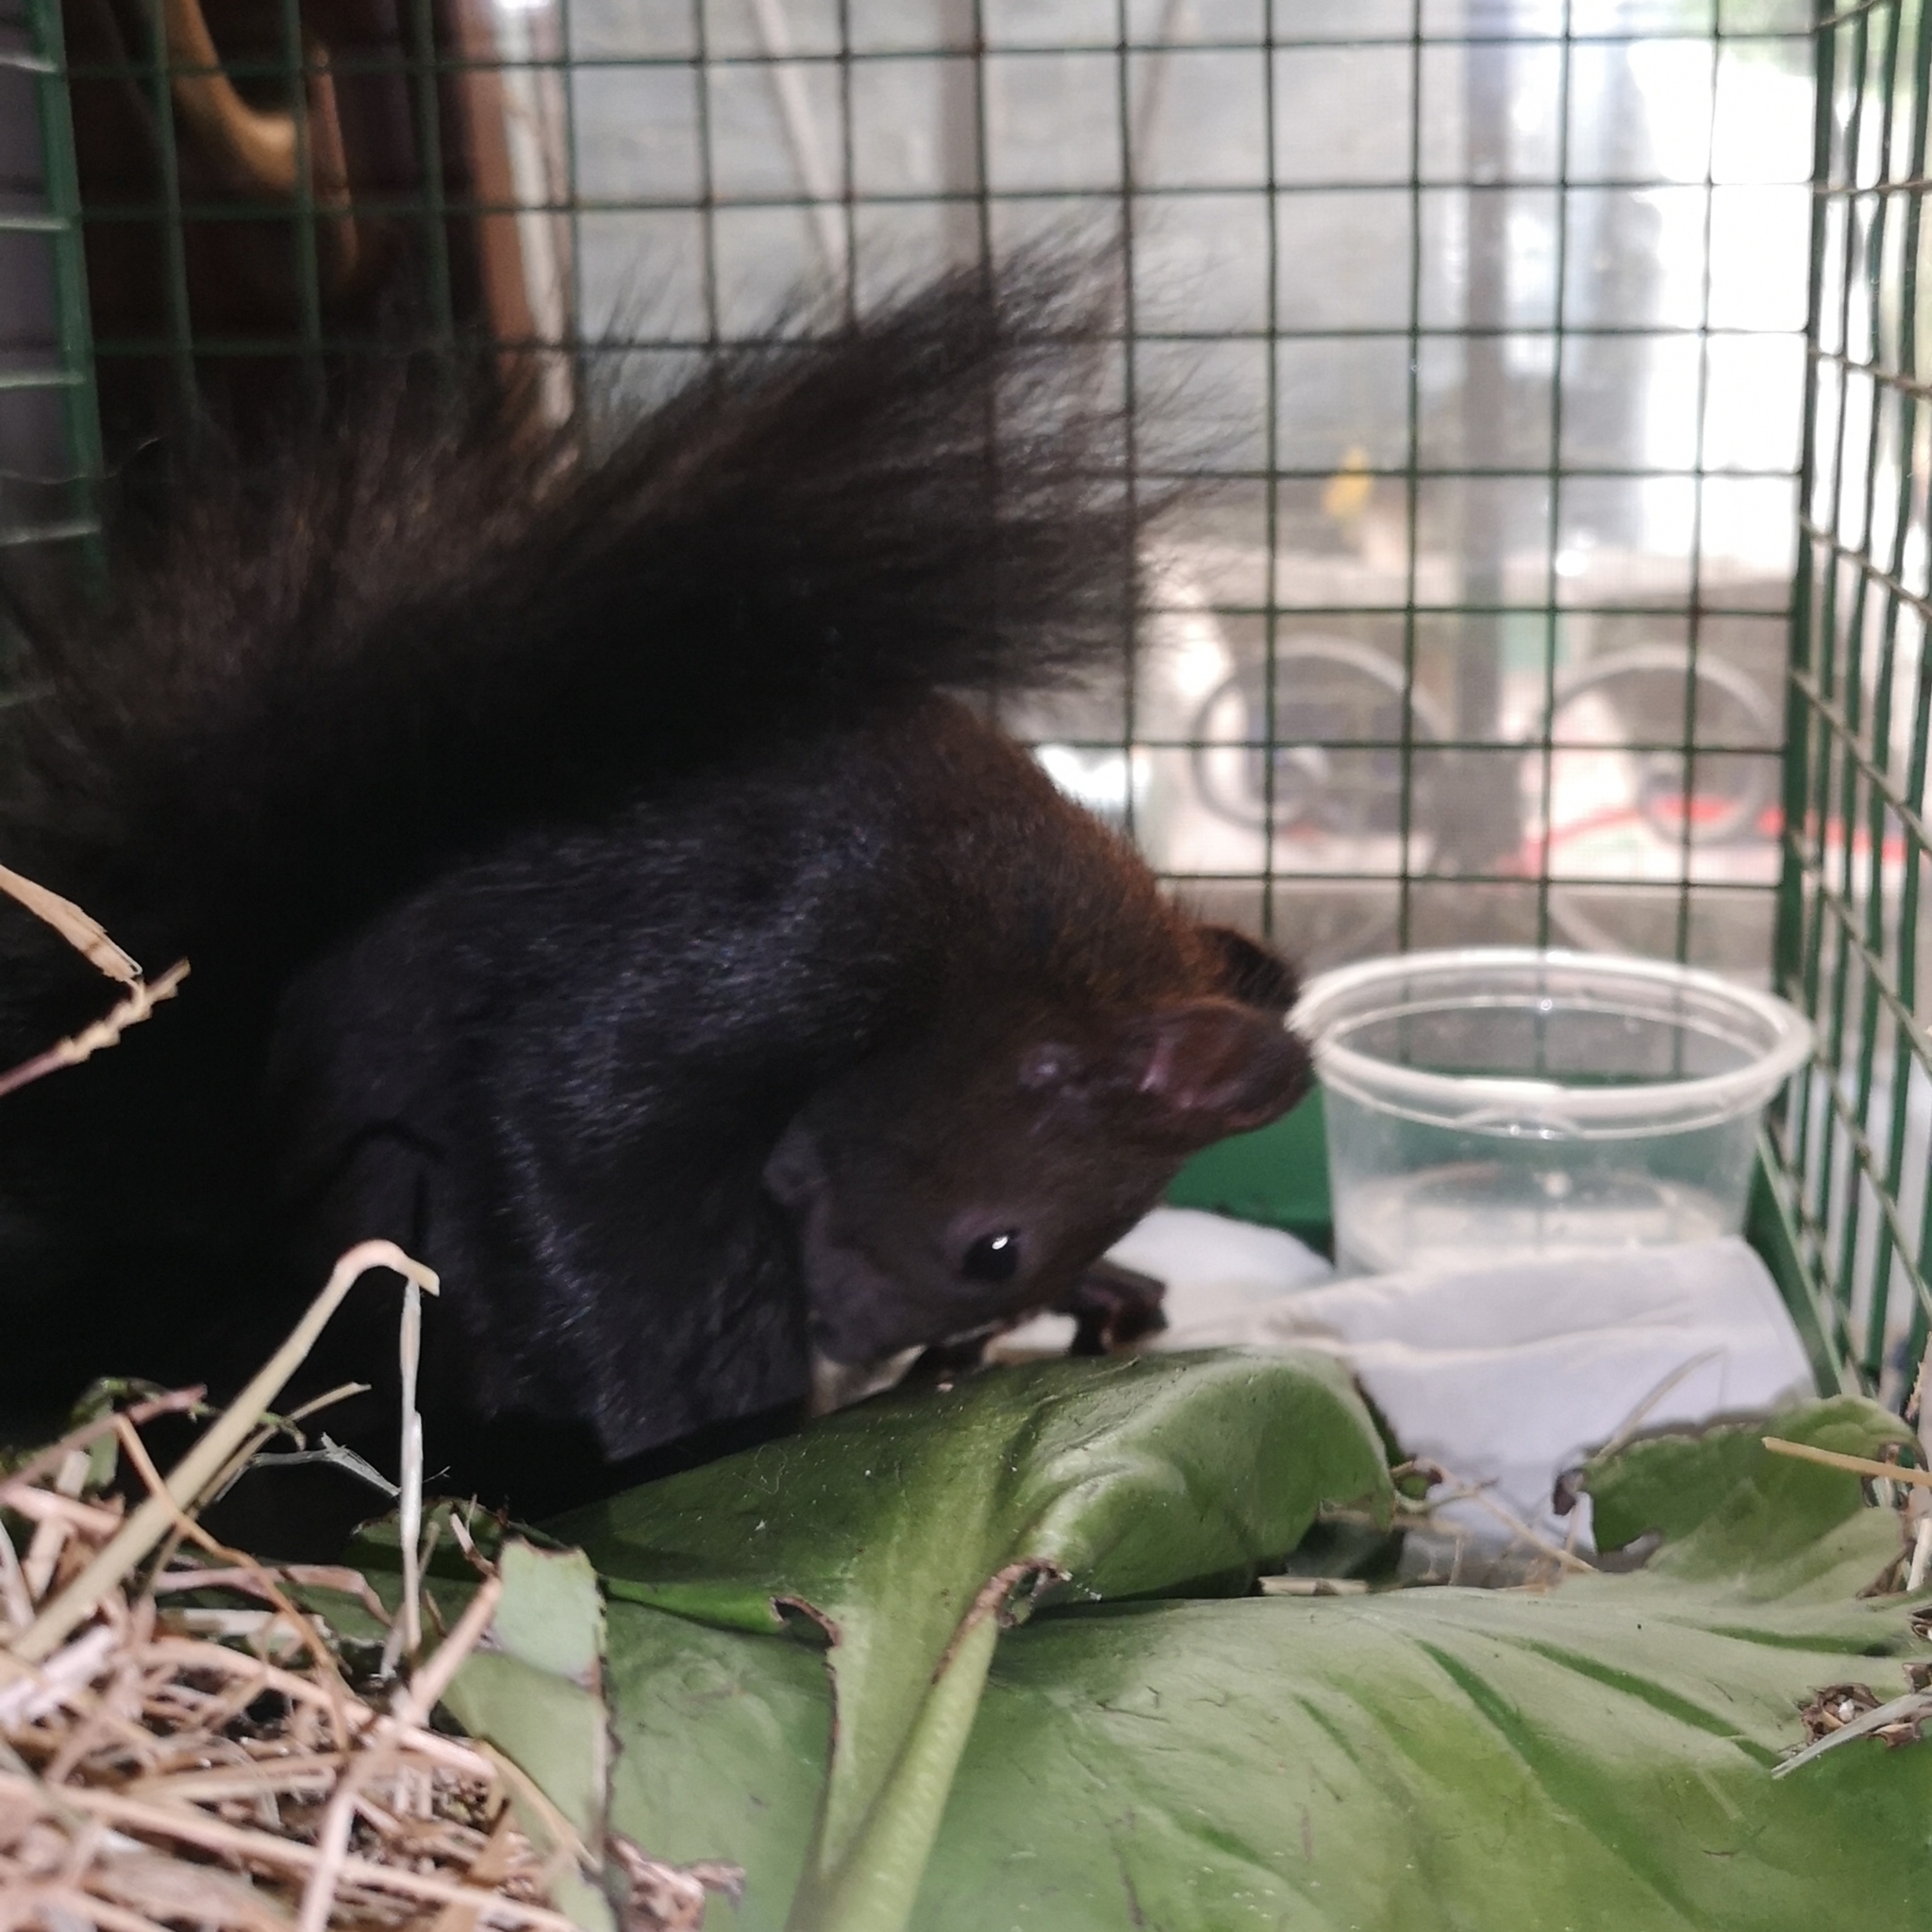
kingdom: Animalia
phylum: Chordata
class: Mammalia
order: Rodentia
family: Sciuridae
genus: Sciurus
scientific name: Sciurus vulgaris
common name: Eurasian red squirrel
